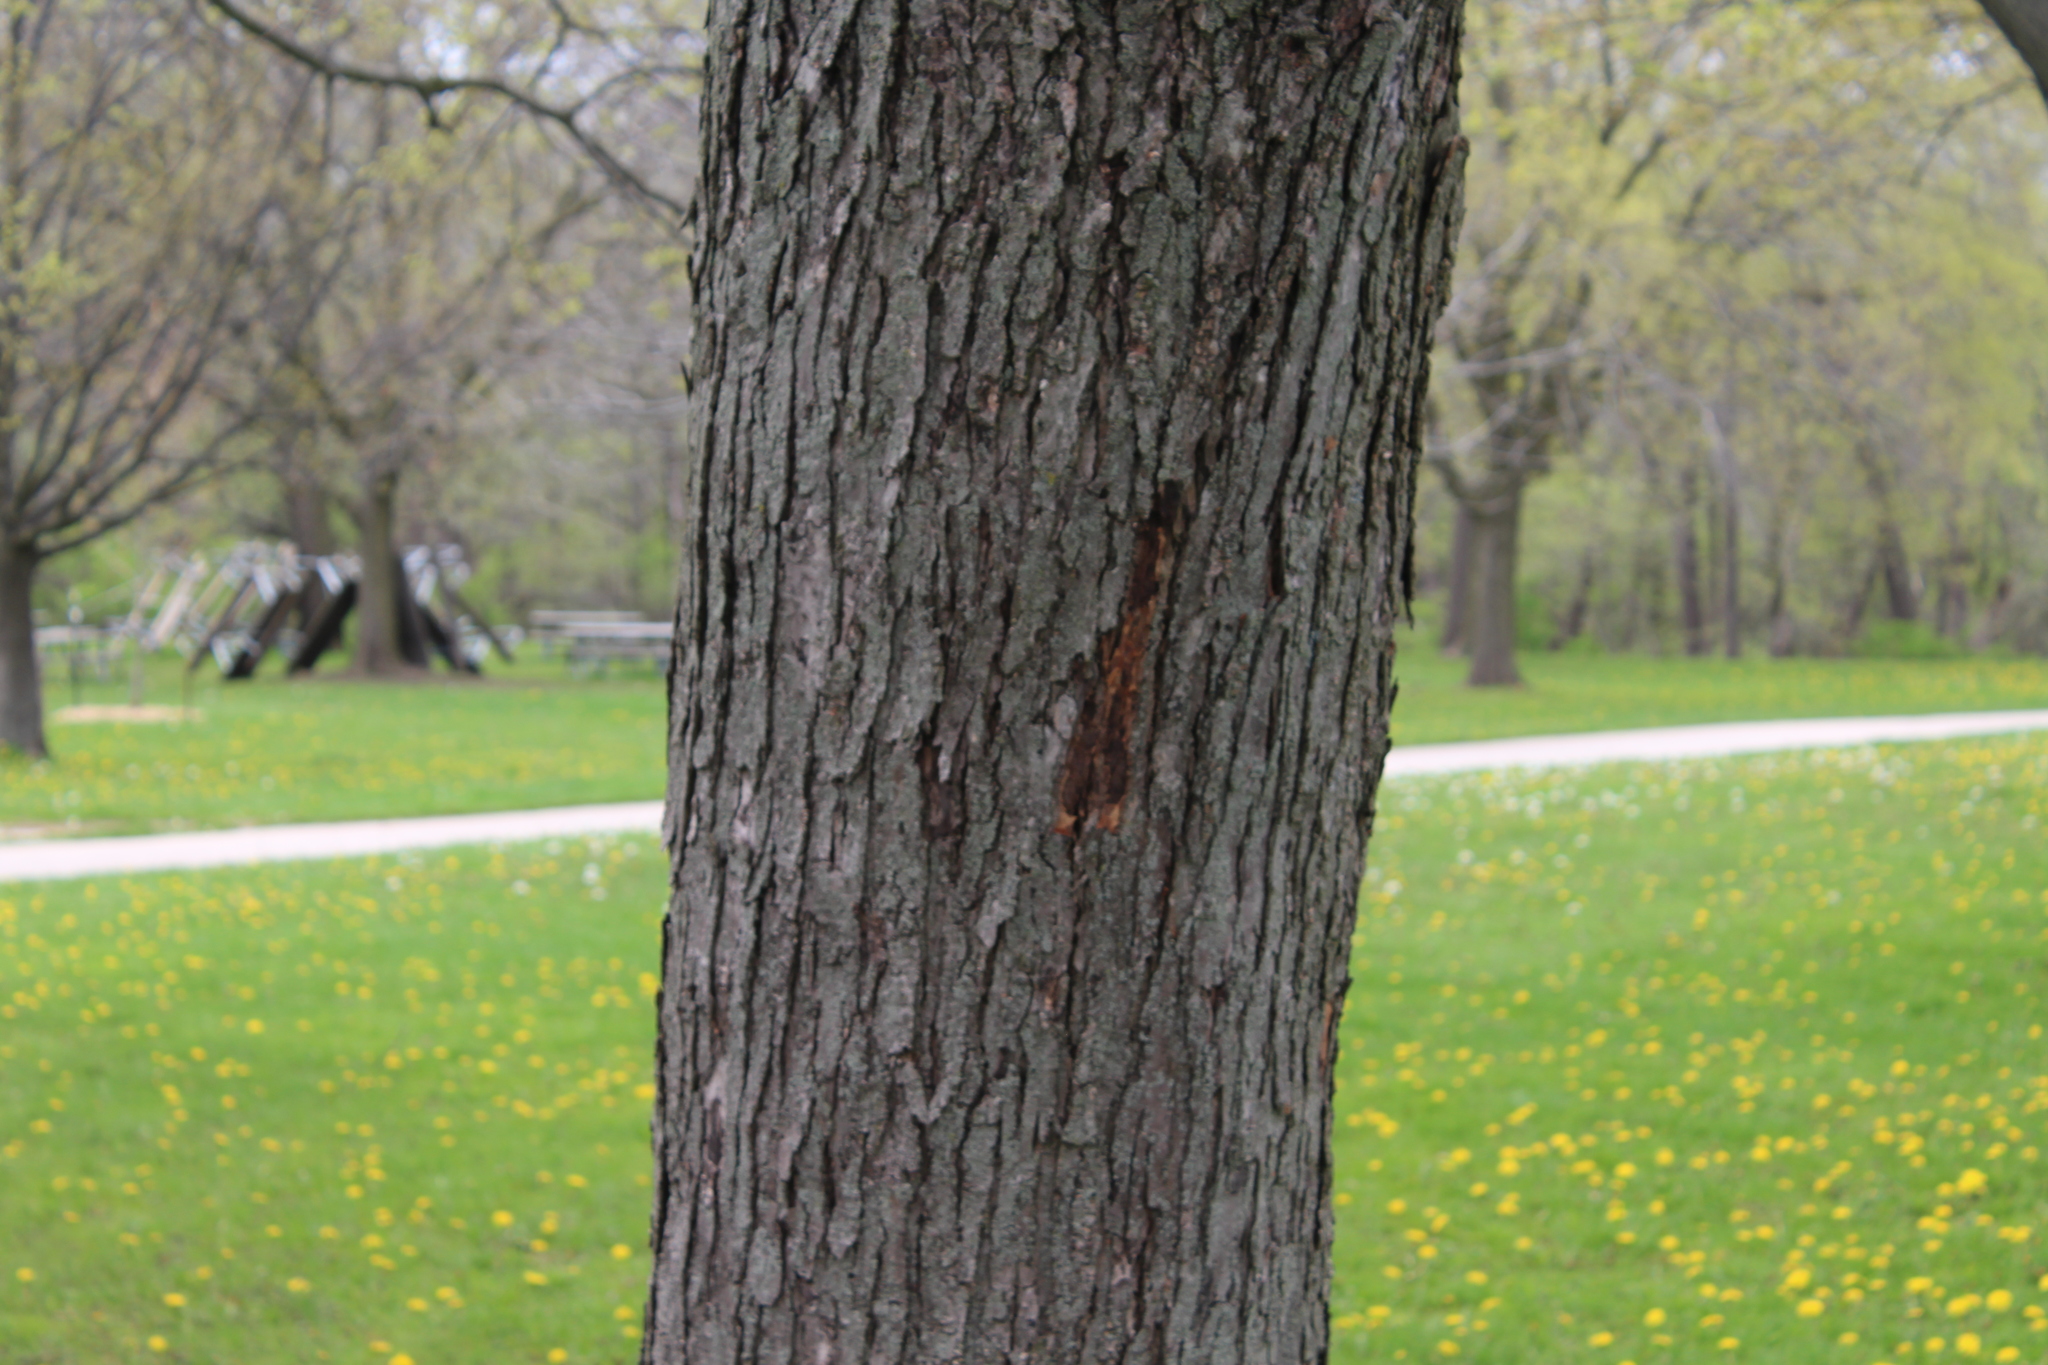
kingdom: Plantae
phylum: Tracheophyta
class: Magnoliopsida
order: Sapindales
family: Sapindaceae
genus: Acer
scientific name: Acer saccharinum
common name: Silver maple
